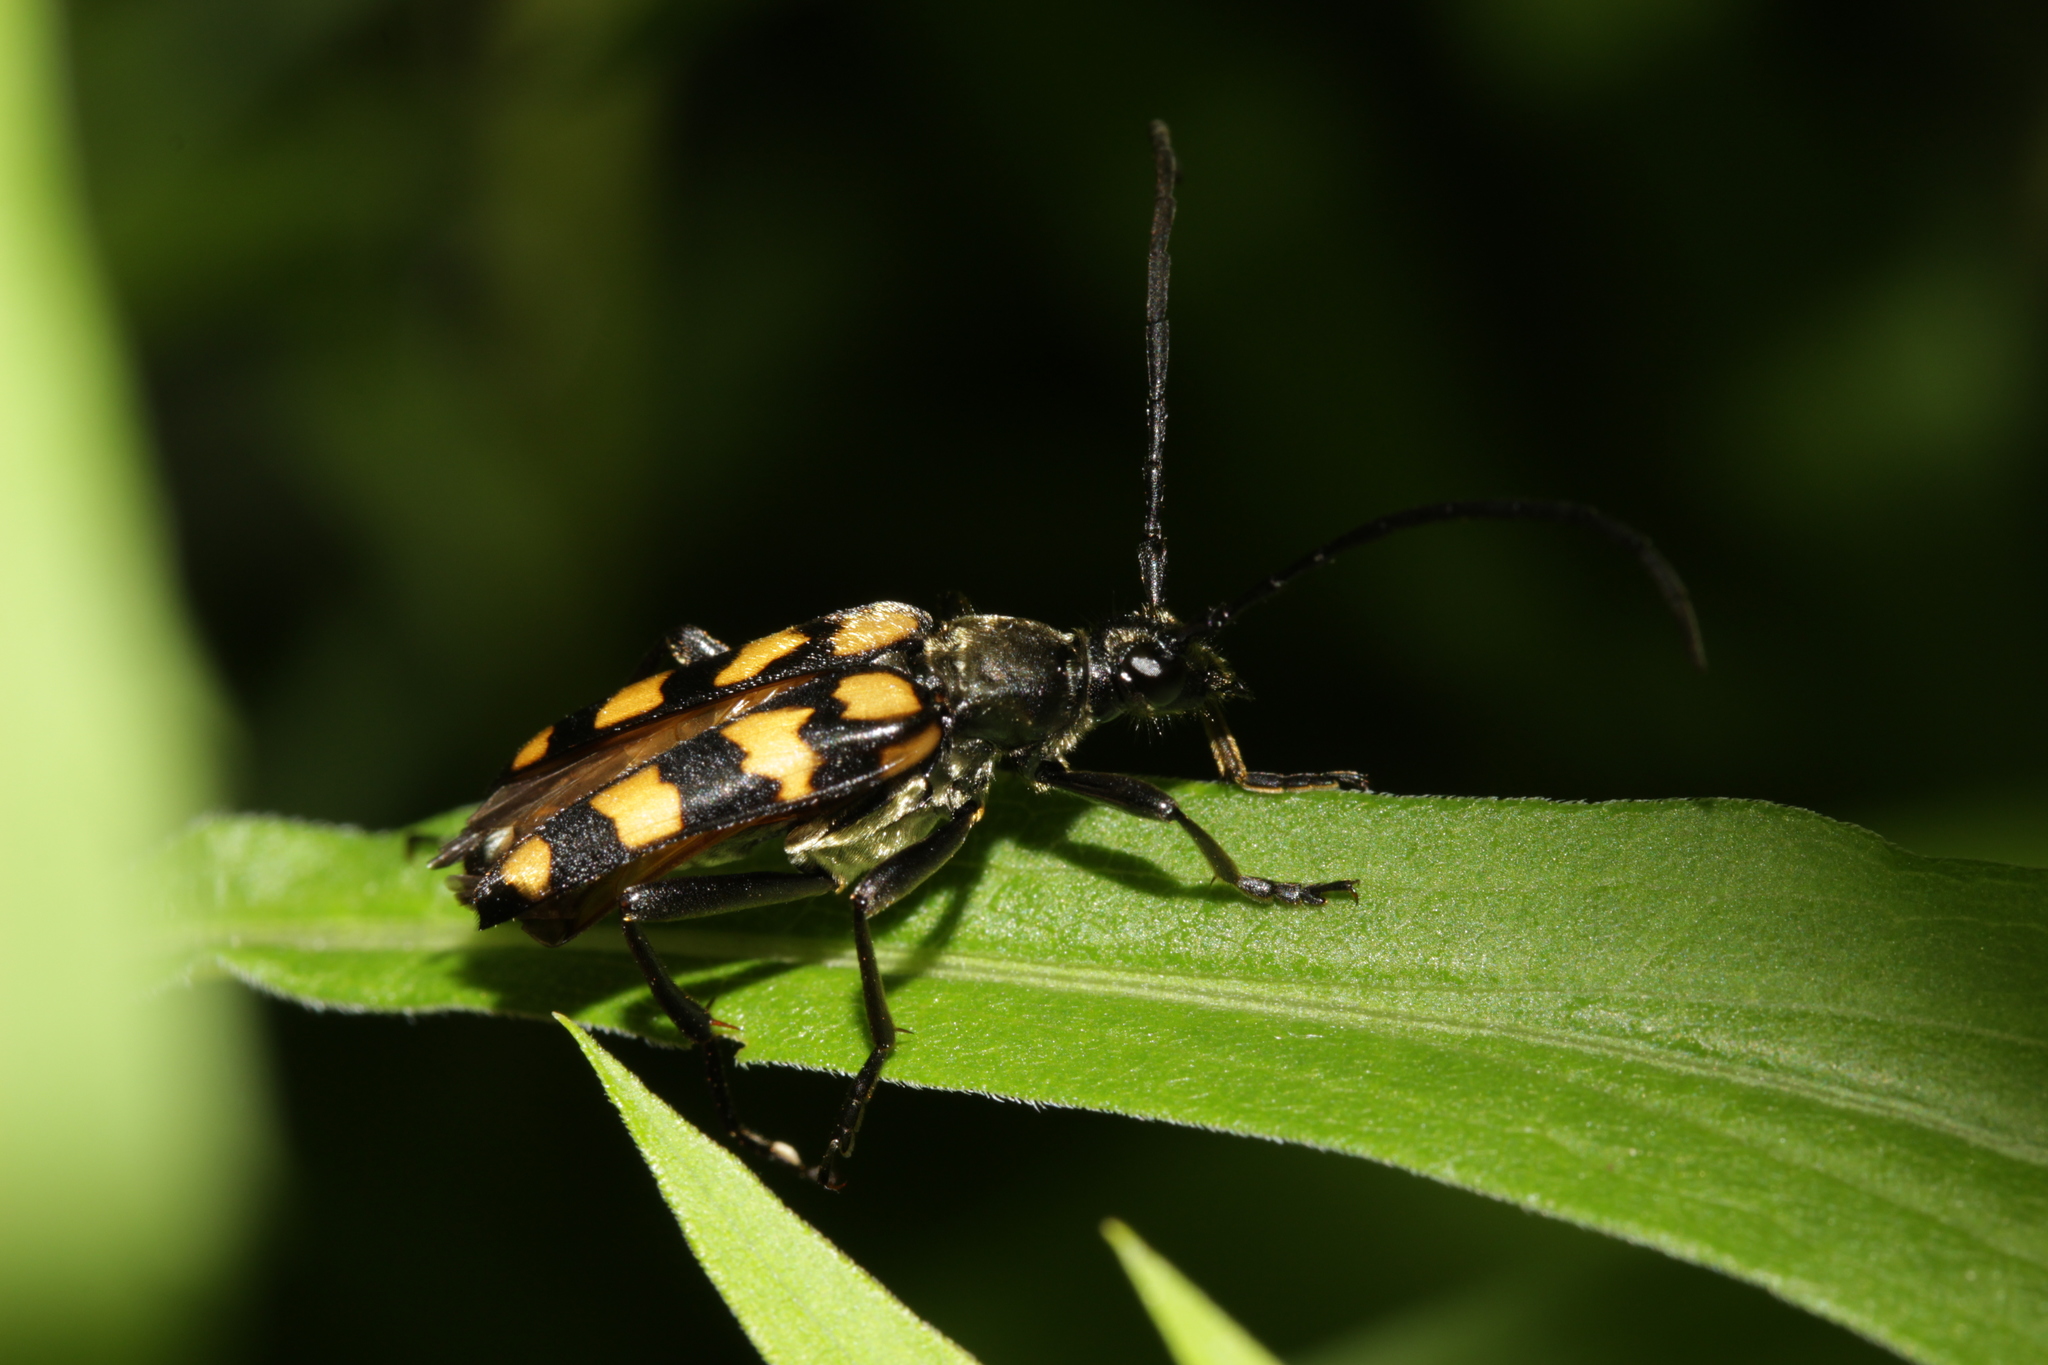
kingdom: Animalia
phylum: Arthropoda
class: Insecta
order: Coleoptera
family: Cerambycidae
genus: Leptura
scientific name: Leptura quadrifasciata
